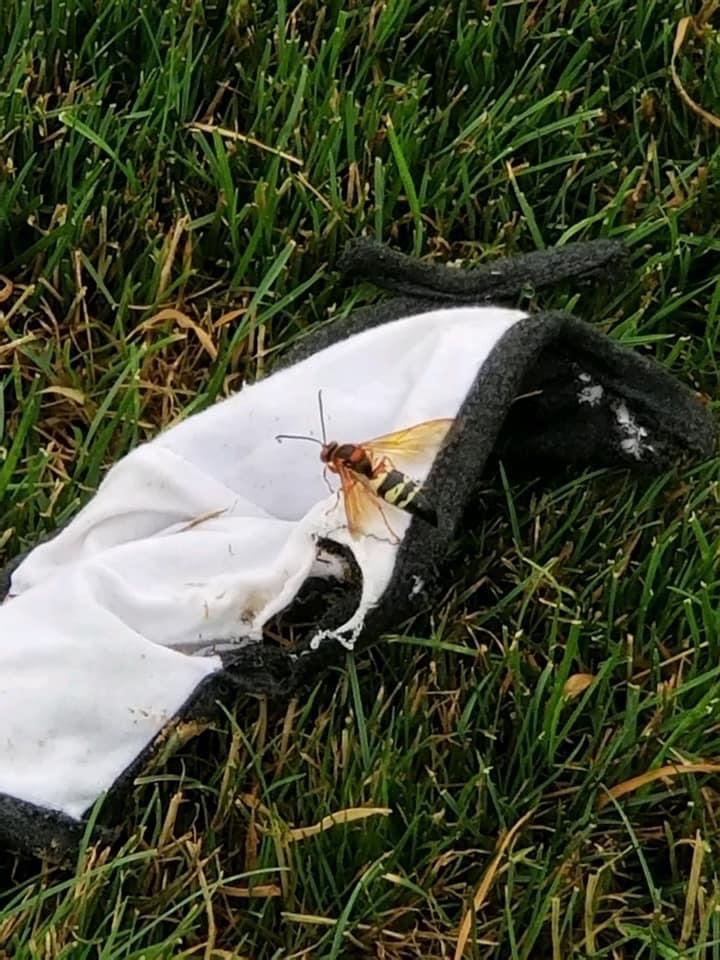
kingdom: Animalia
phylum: Arthropoda
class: Insecta
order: Hymenoptera
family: Crabronidae
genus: Sphecius
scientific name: Sphecius speciosus
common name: Cicada killer
